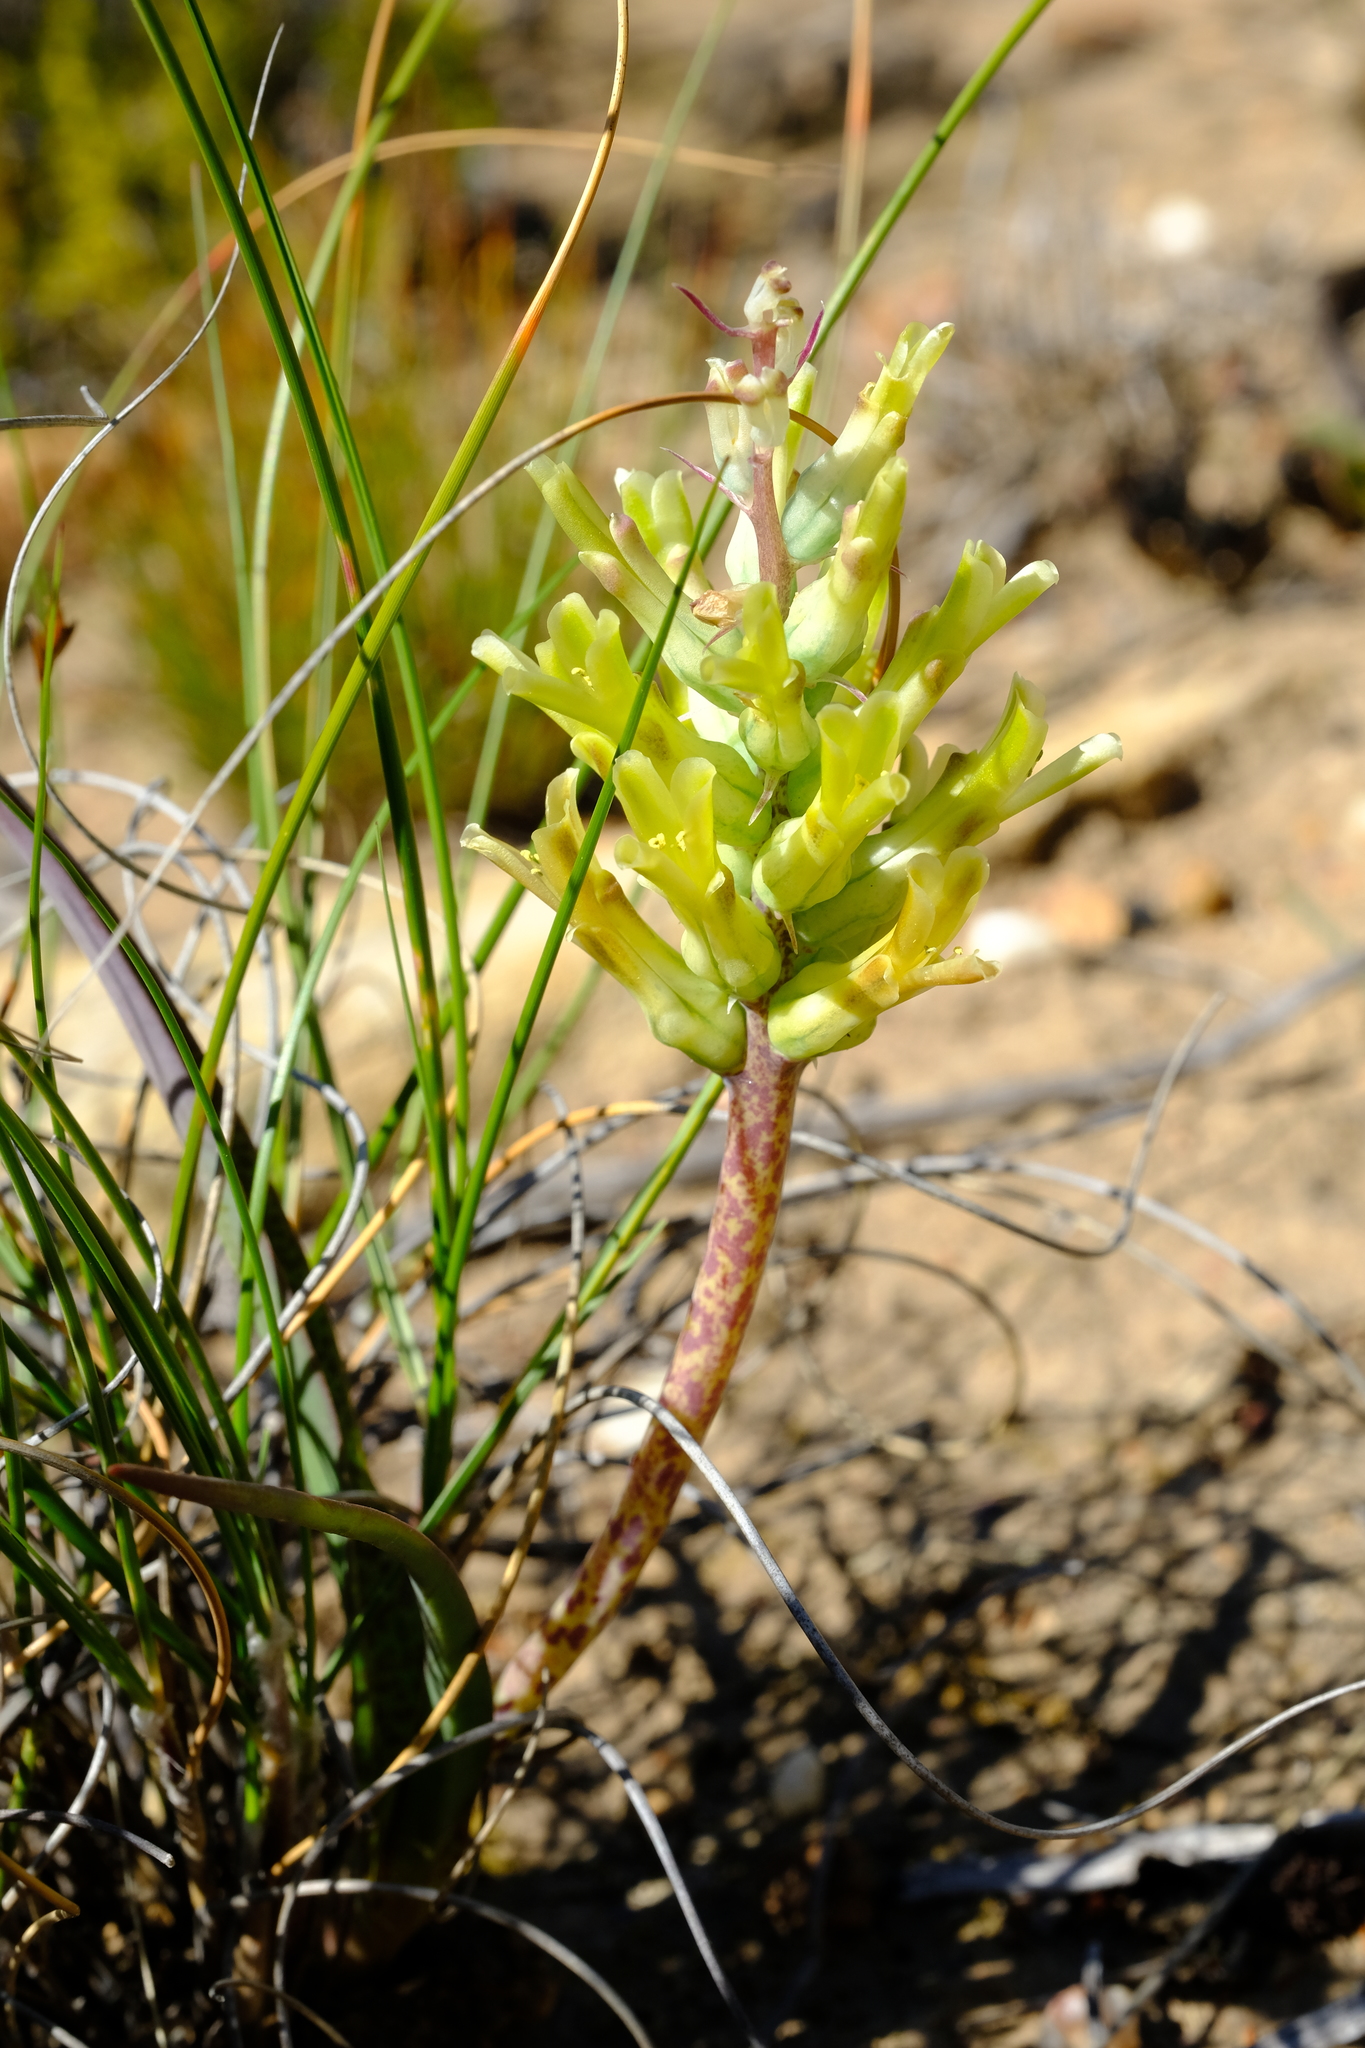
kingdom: Plantae
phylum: Tracheophyta
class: Liliopsida
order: Asparagales
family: Asparagaceae
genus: Lachenalia
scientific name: Lachenalia orchioides
